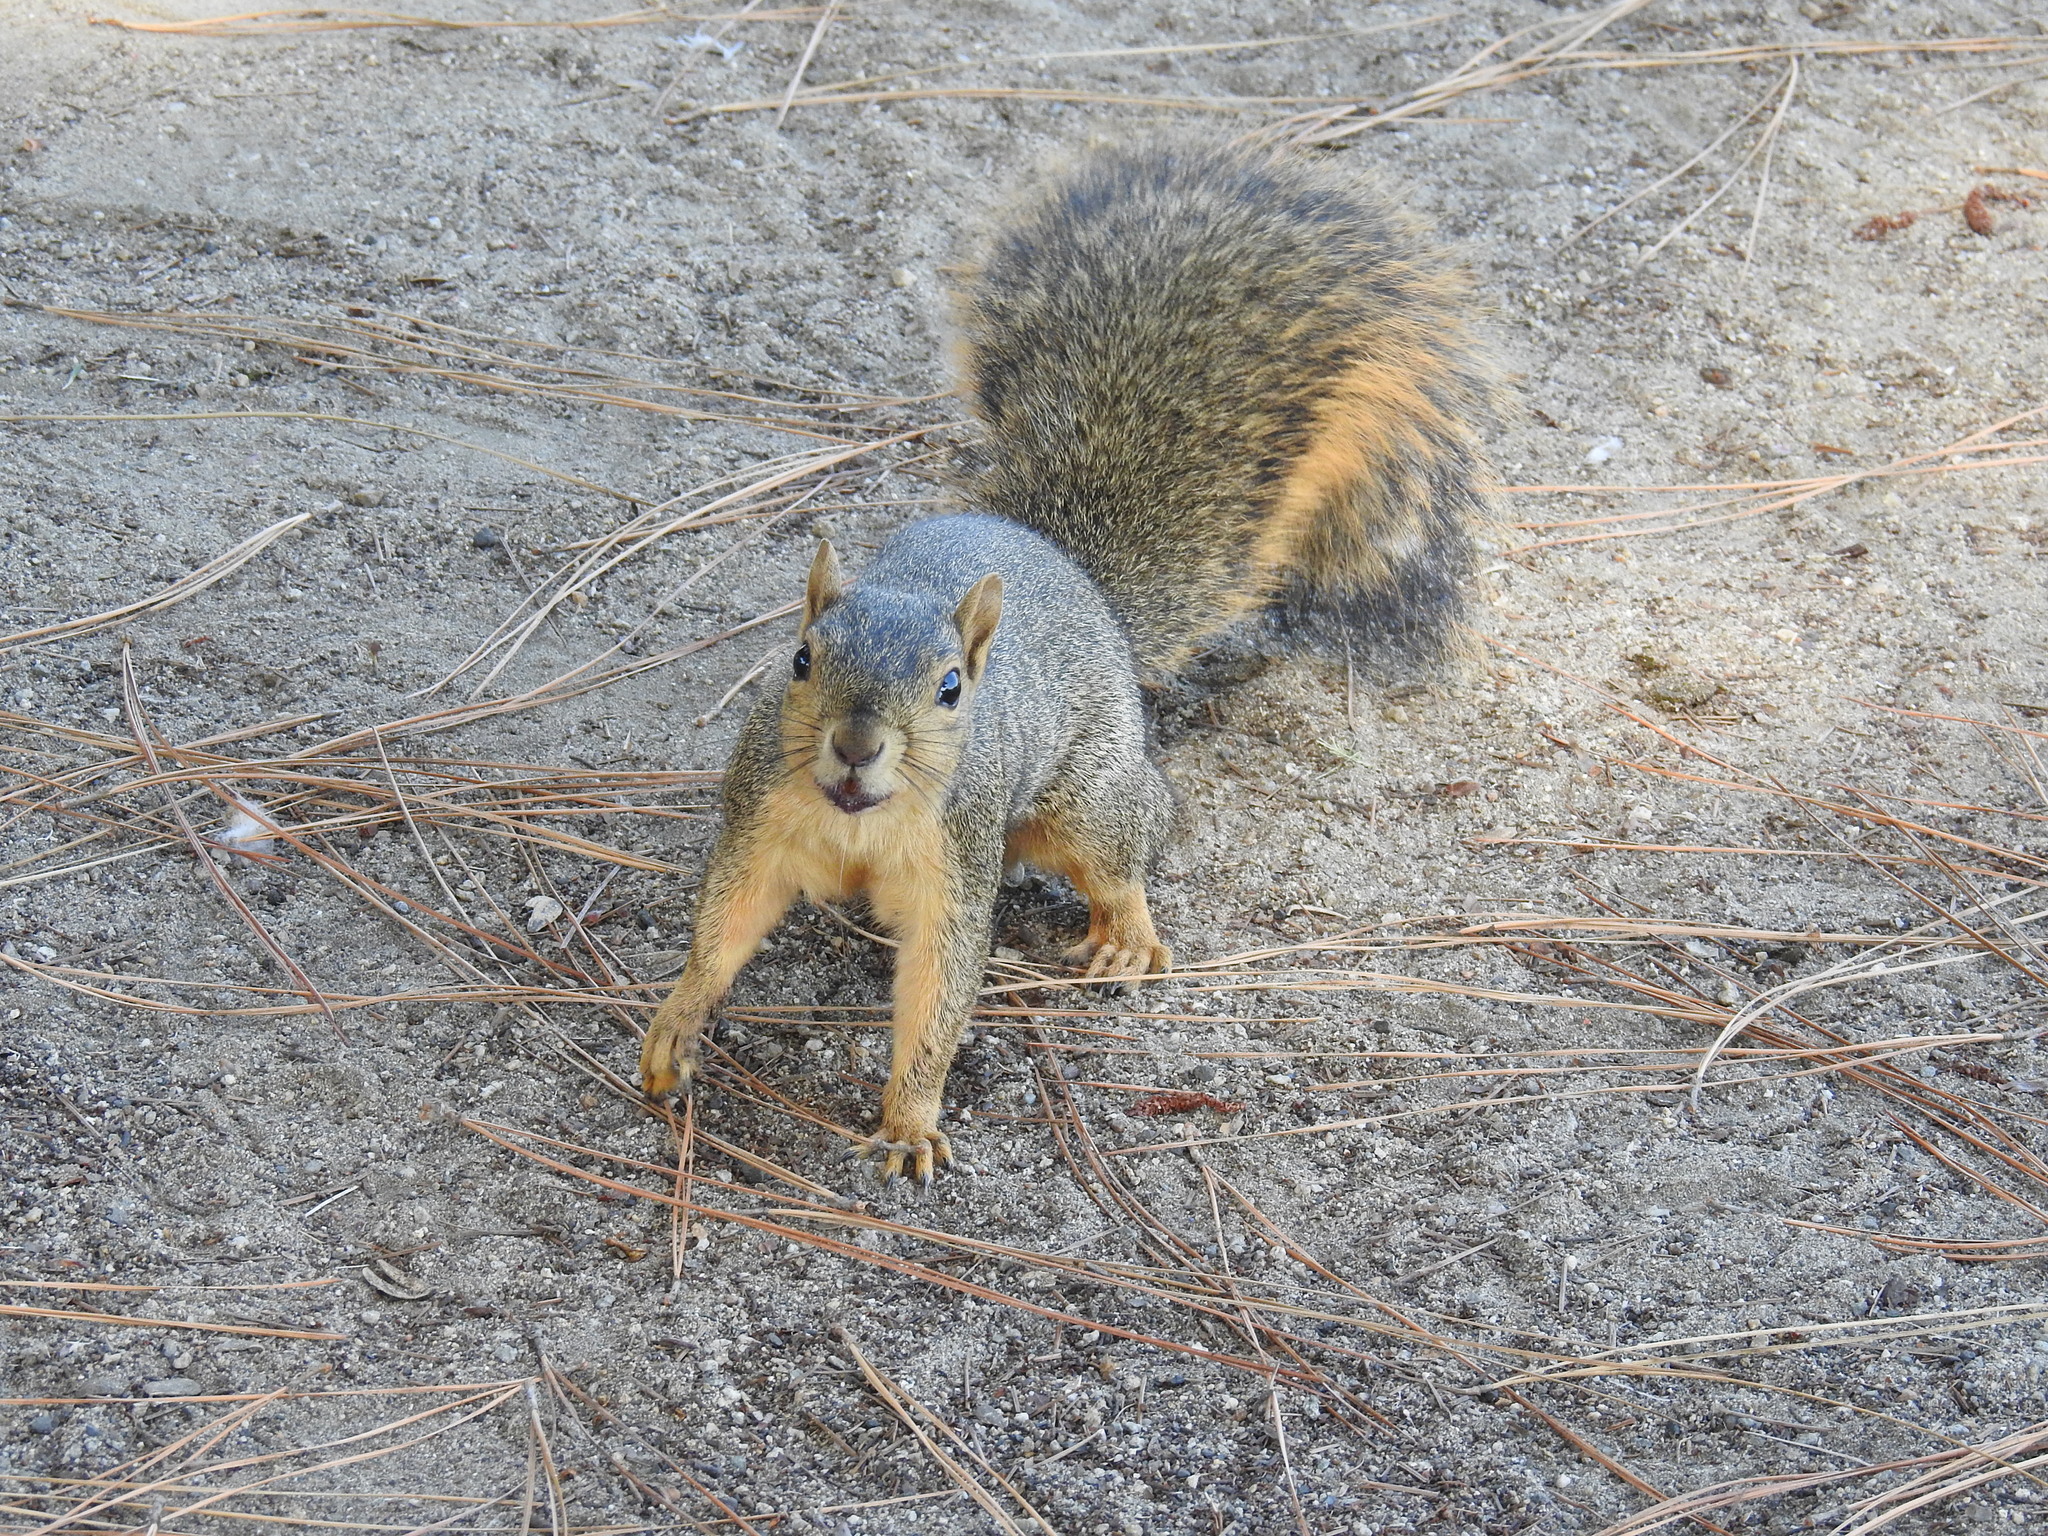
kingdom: Animalia
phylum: Chordata
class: Mammalia
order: Rodentia
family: Sciuridae
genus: Sciurus
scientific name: Sciurus niger
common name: Fox squirrel
